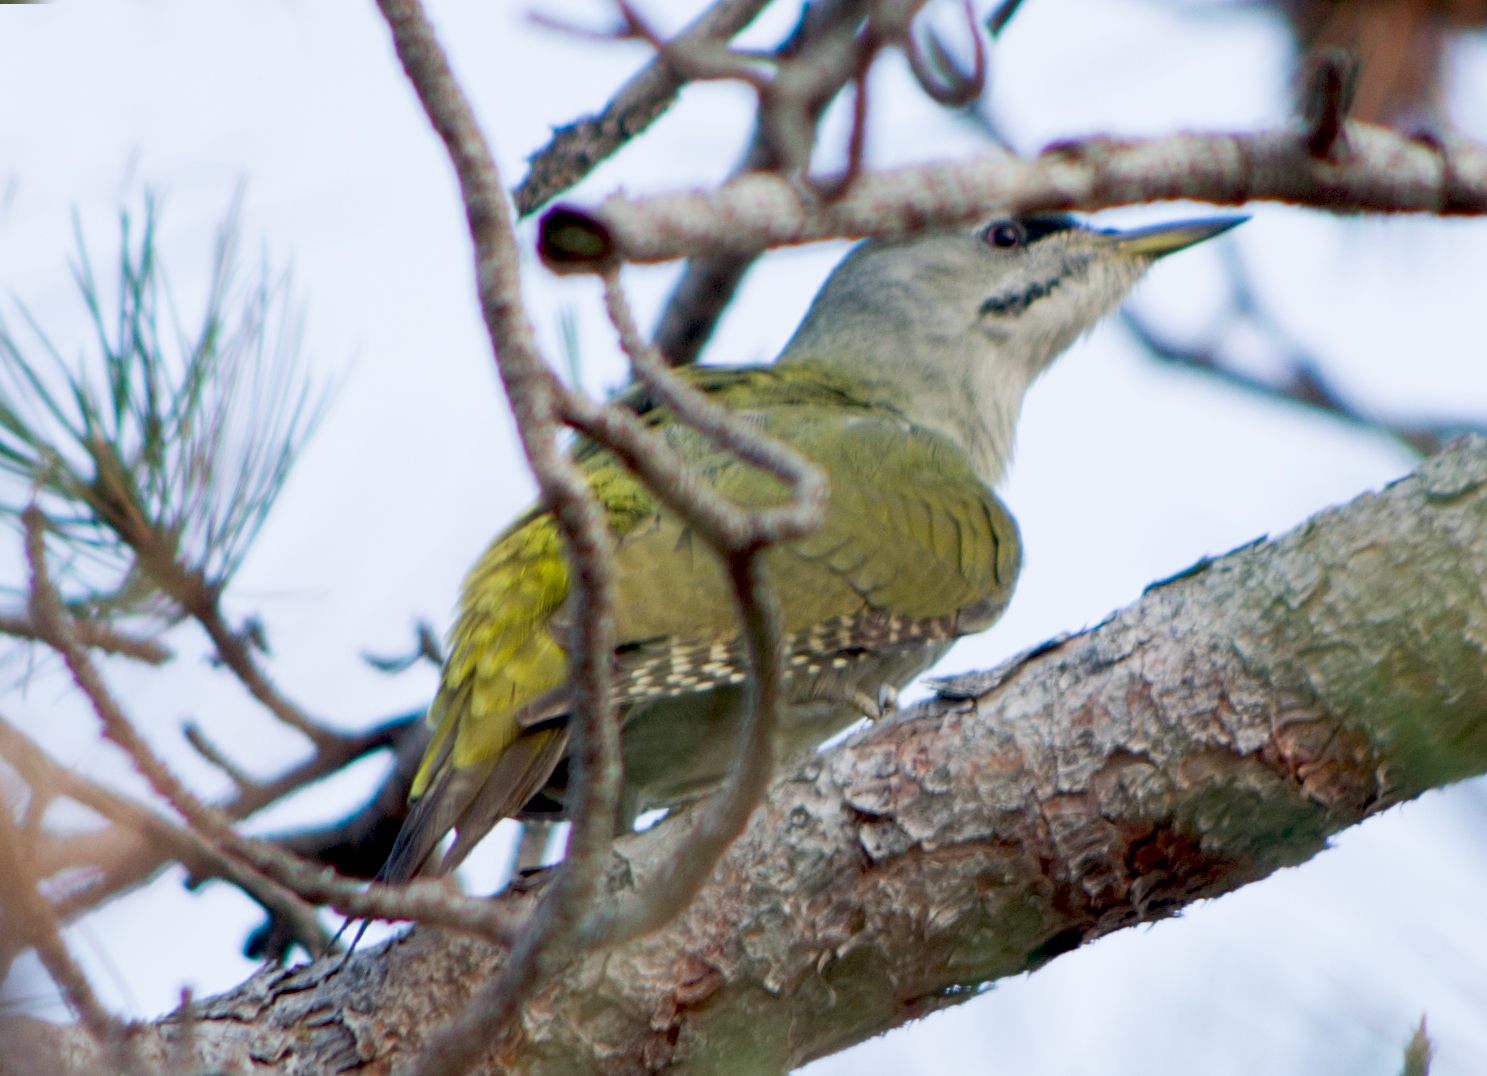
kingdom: Animalia
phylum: Chordata
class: Aves
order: Piciformes
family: Picidae
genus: Picus
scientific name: Picus canus
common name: Grey-headed woodpecker
